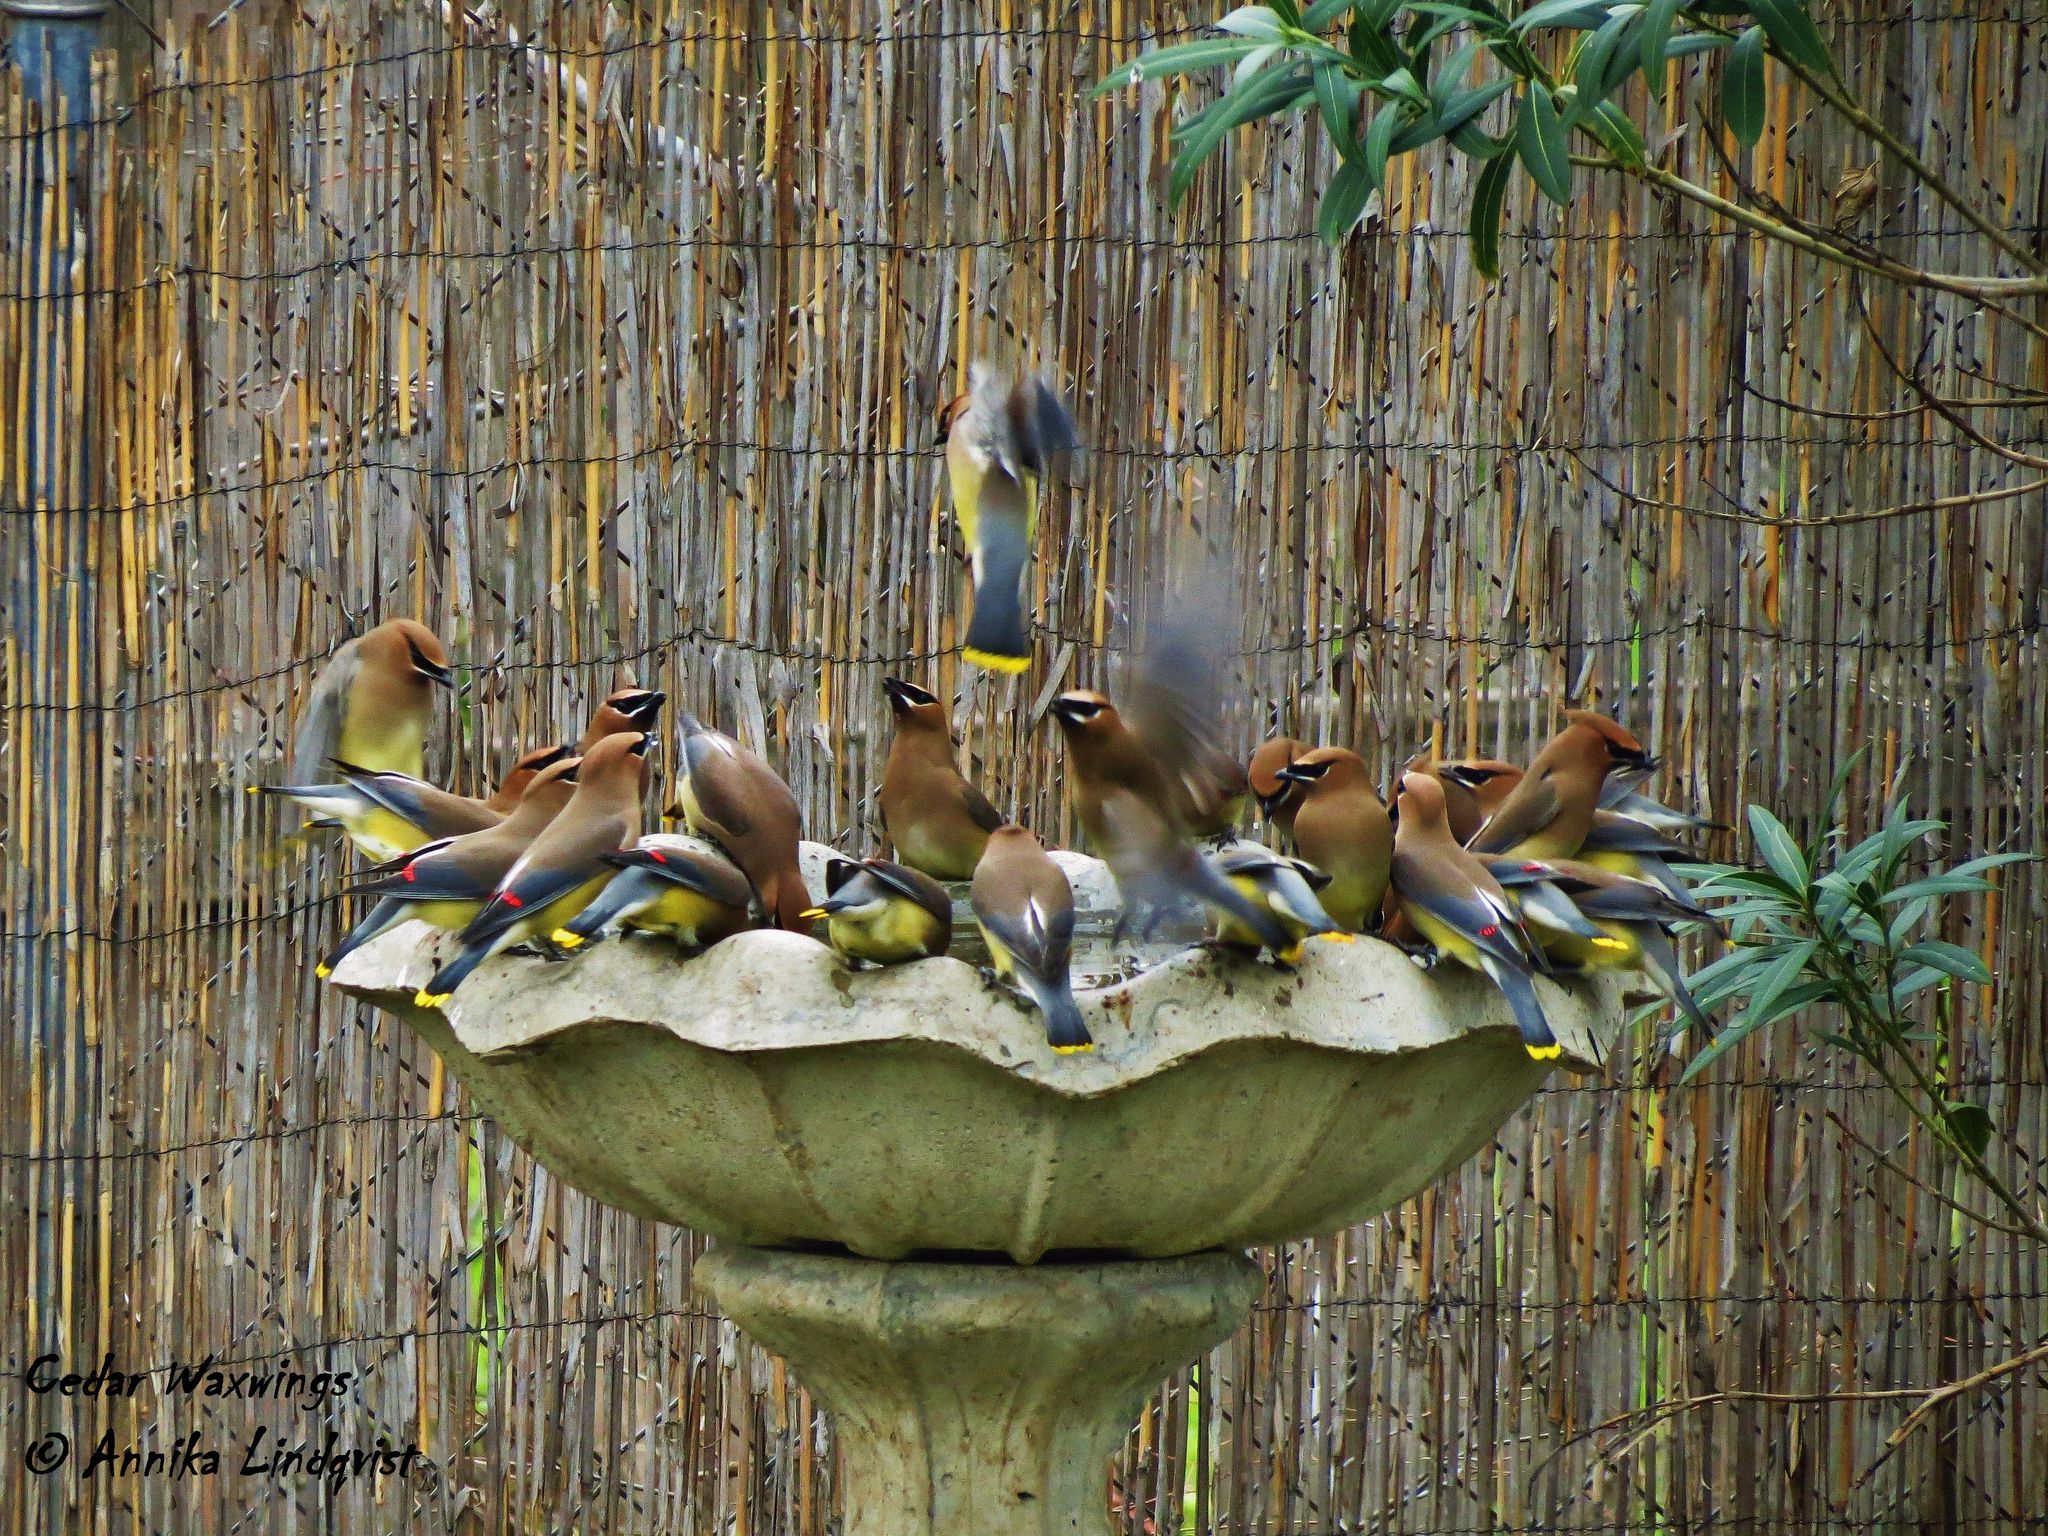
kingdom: Animalia
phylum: Chordata
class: Aves
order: Passeriformes
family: Bombycillidae
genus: Bombycilla
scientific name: Bombycilla cedrorum
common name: Cedar waxwing
